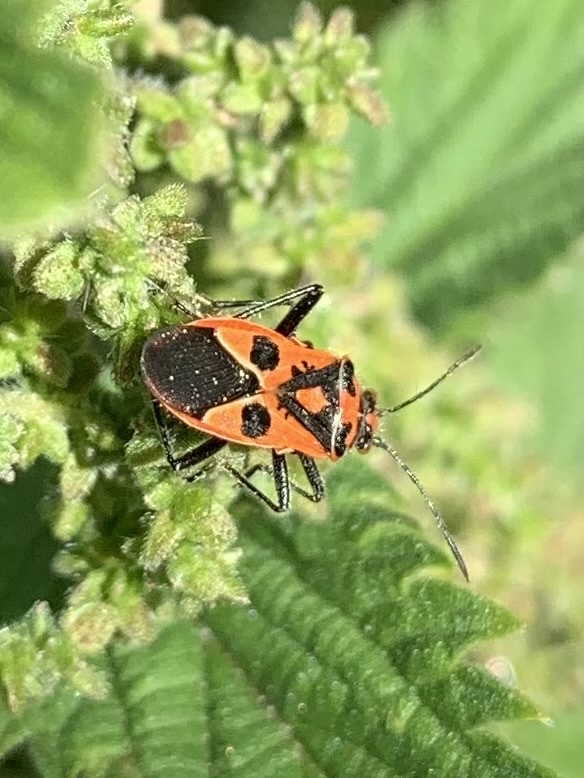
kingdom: Animalia
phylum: Arthropoda
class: Insecta
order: Hemiptera
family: Rhopalidae
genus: Corizus
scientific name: Corizus hyoscyami
